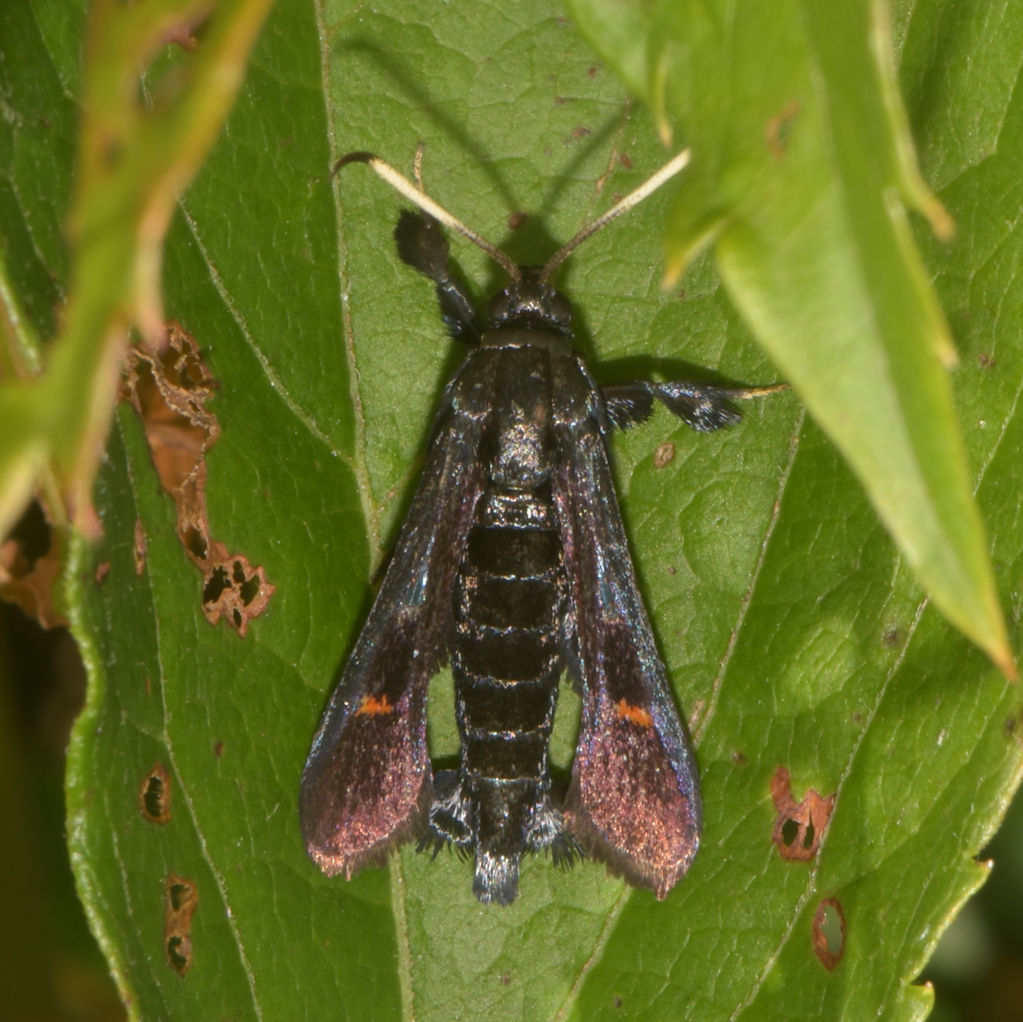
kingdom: Animalia
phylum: Arthropoda
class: Insecta
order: Lepidoptera
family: Sesiidae
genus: Albuna
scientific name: Albuna fraxini
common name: Virginia creeper clearwing
